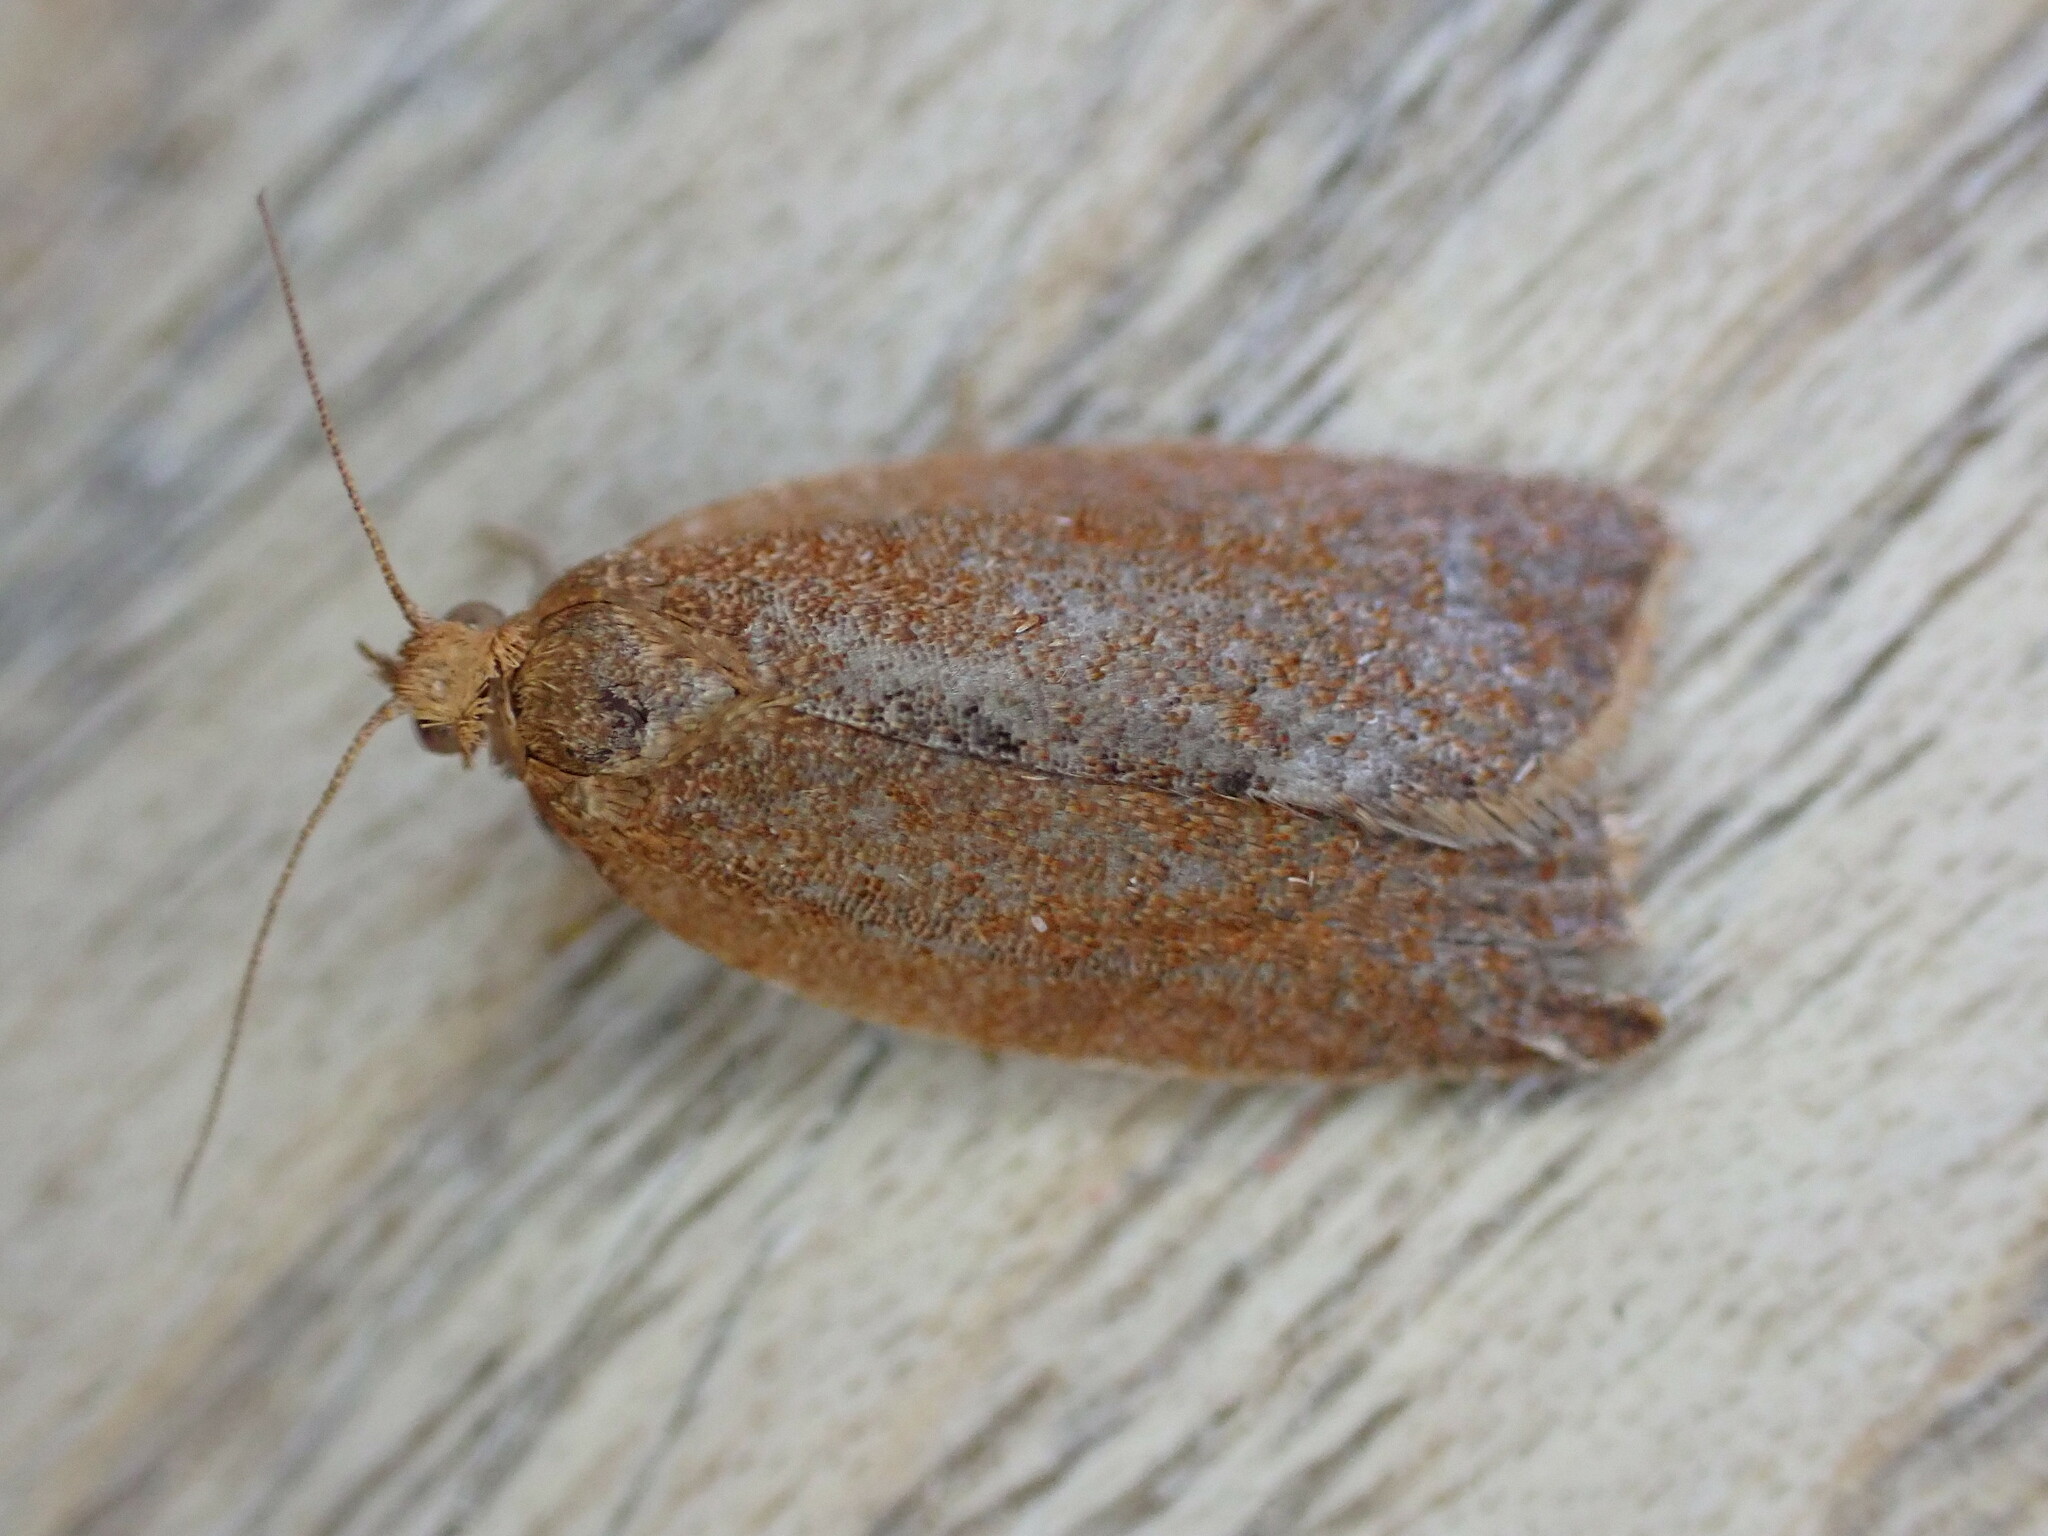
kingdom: Animalia
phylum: Arthropoda
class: Insecta
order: Lepidoptera
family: Tortricidae
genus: Clepsis
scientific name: Clepsis consimilana
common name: Privet tortrix
